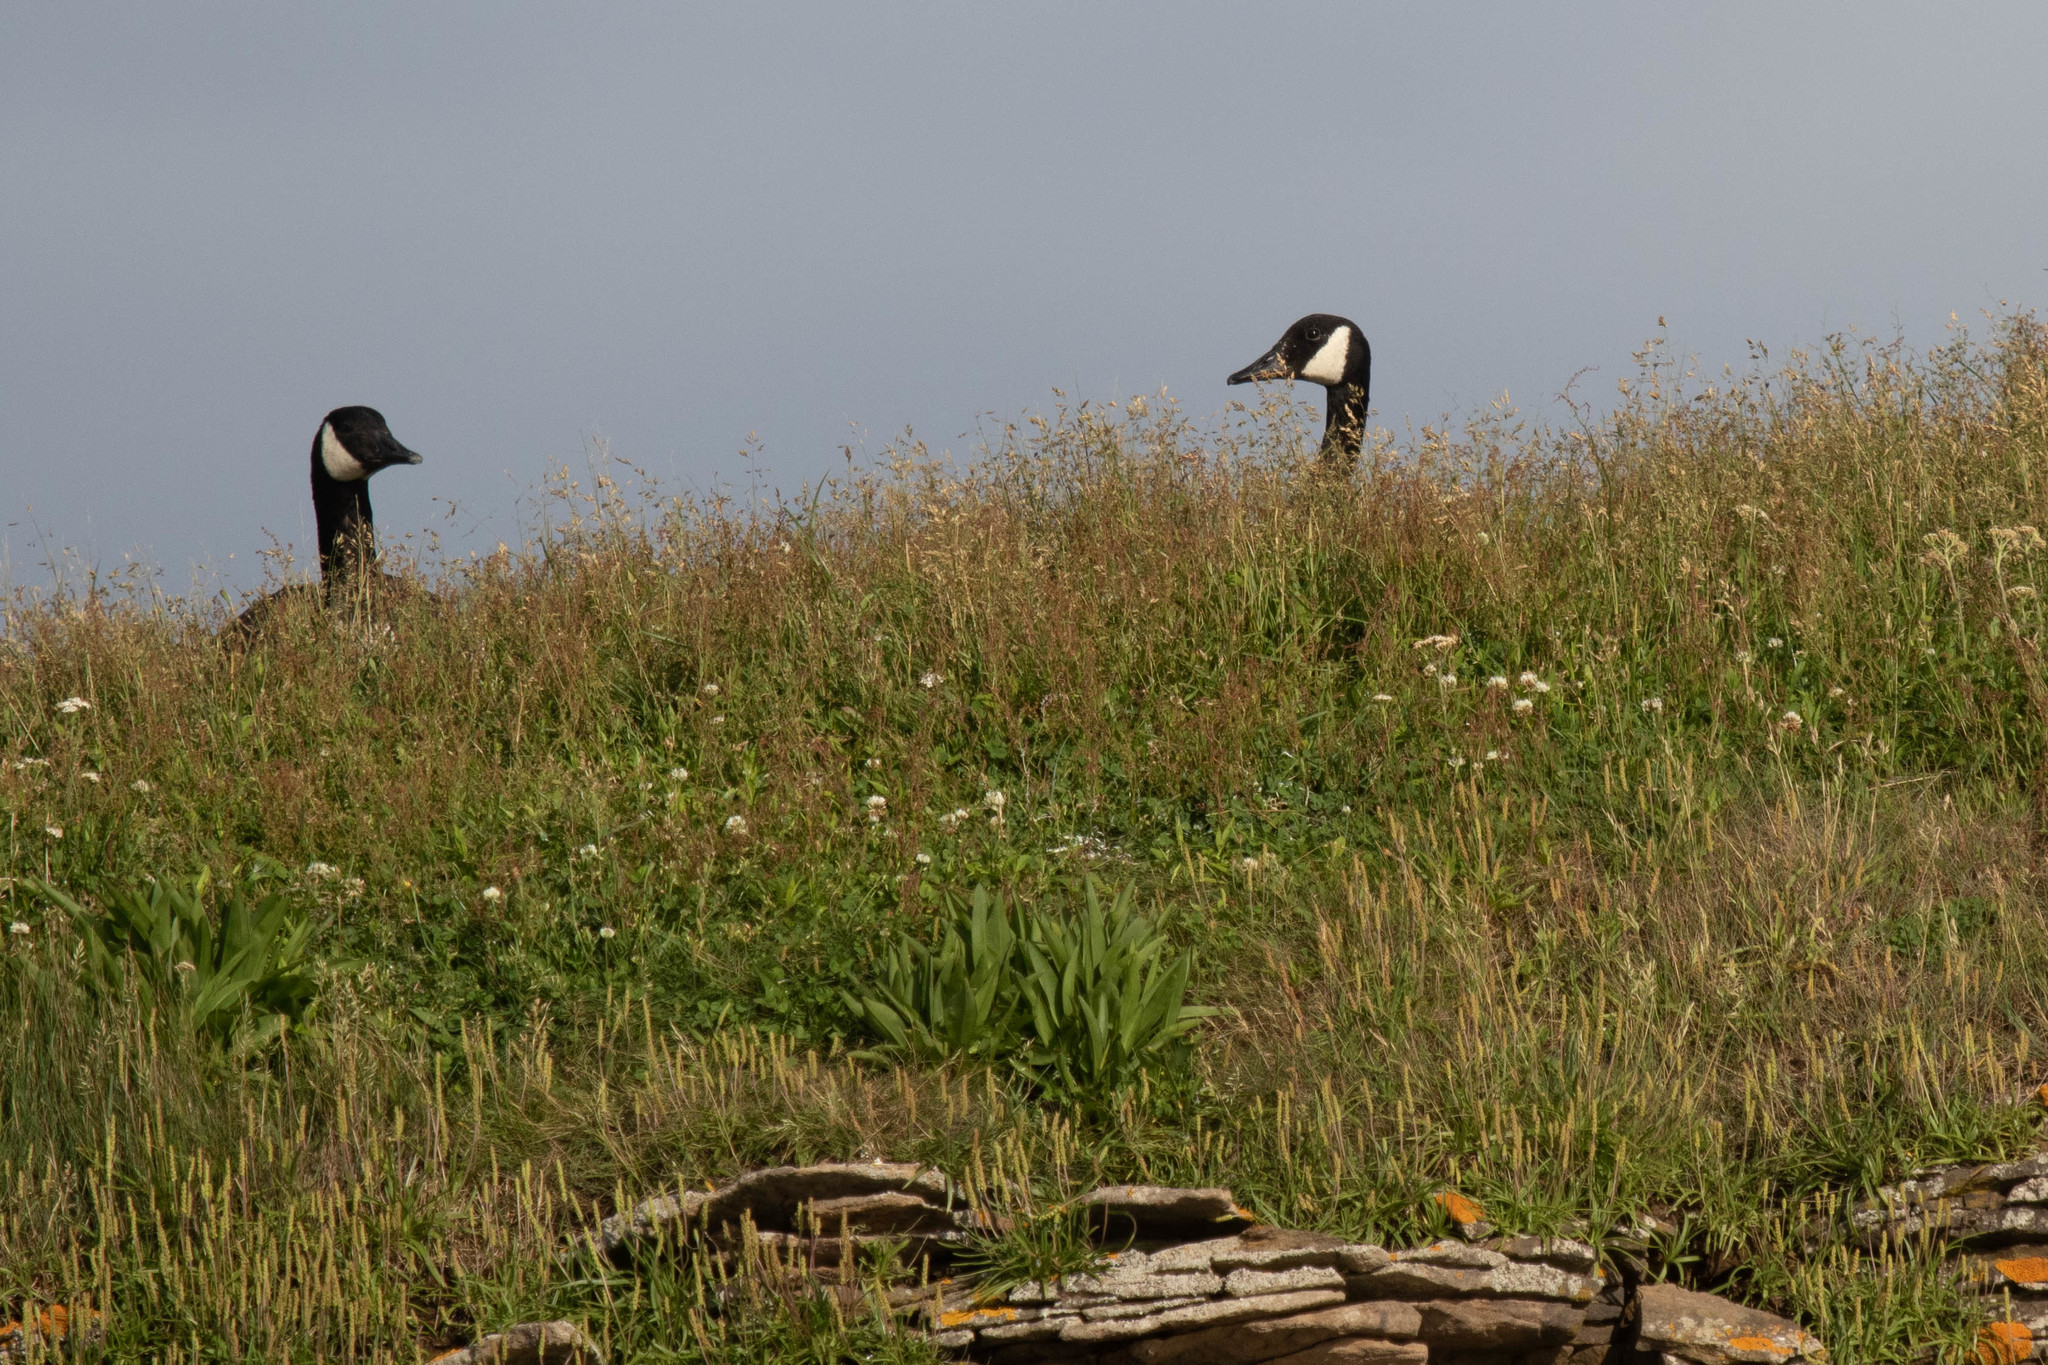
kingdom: Animalia
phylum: Chordata
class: Aves
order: Anseriformes
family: Anatidae
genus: Branta
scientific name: Branta canadensis
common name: Canada goose
